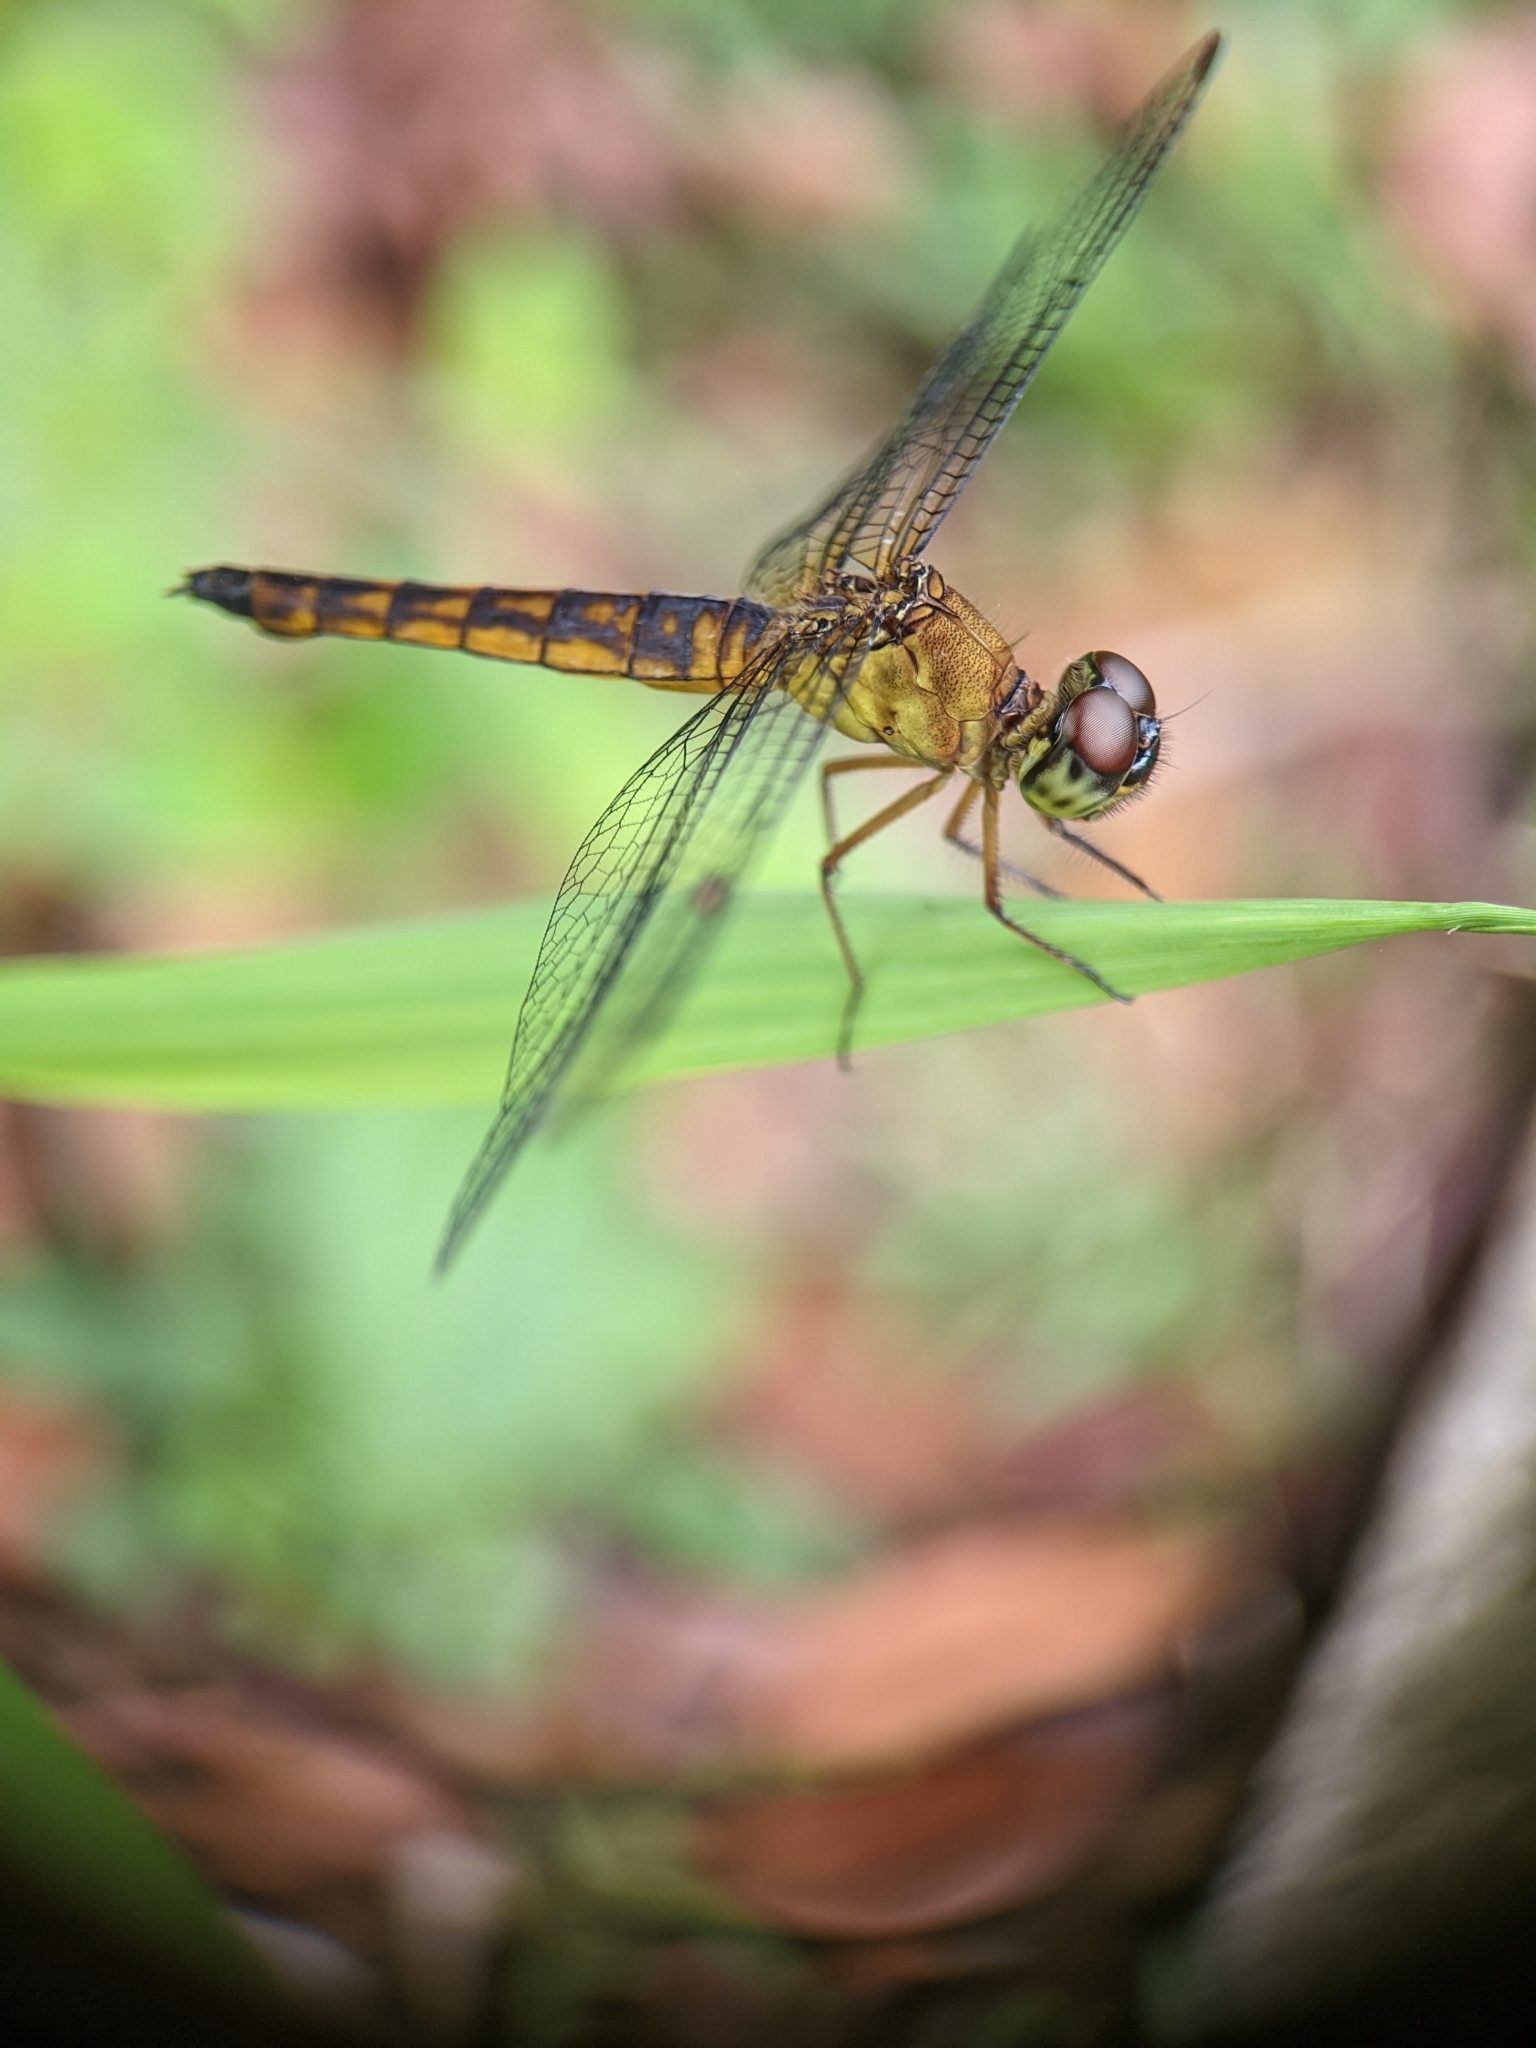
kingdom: Animalia
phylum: Arthropoda
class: Insecta
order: Odonata
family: Libellulidae
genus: Orchithemis
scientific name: Orchithemis pulcherrima
